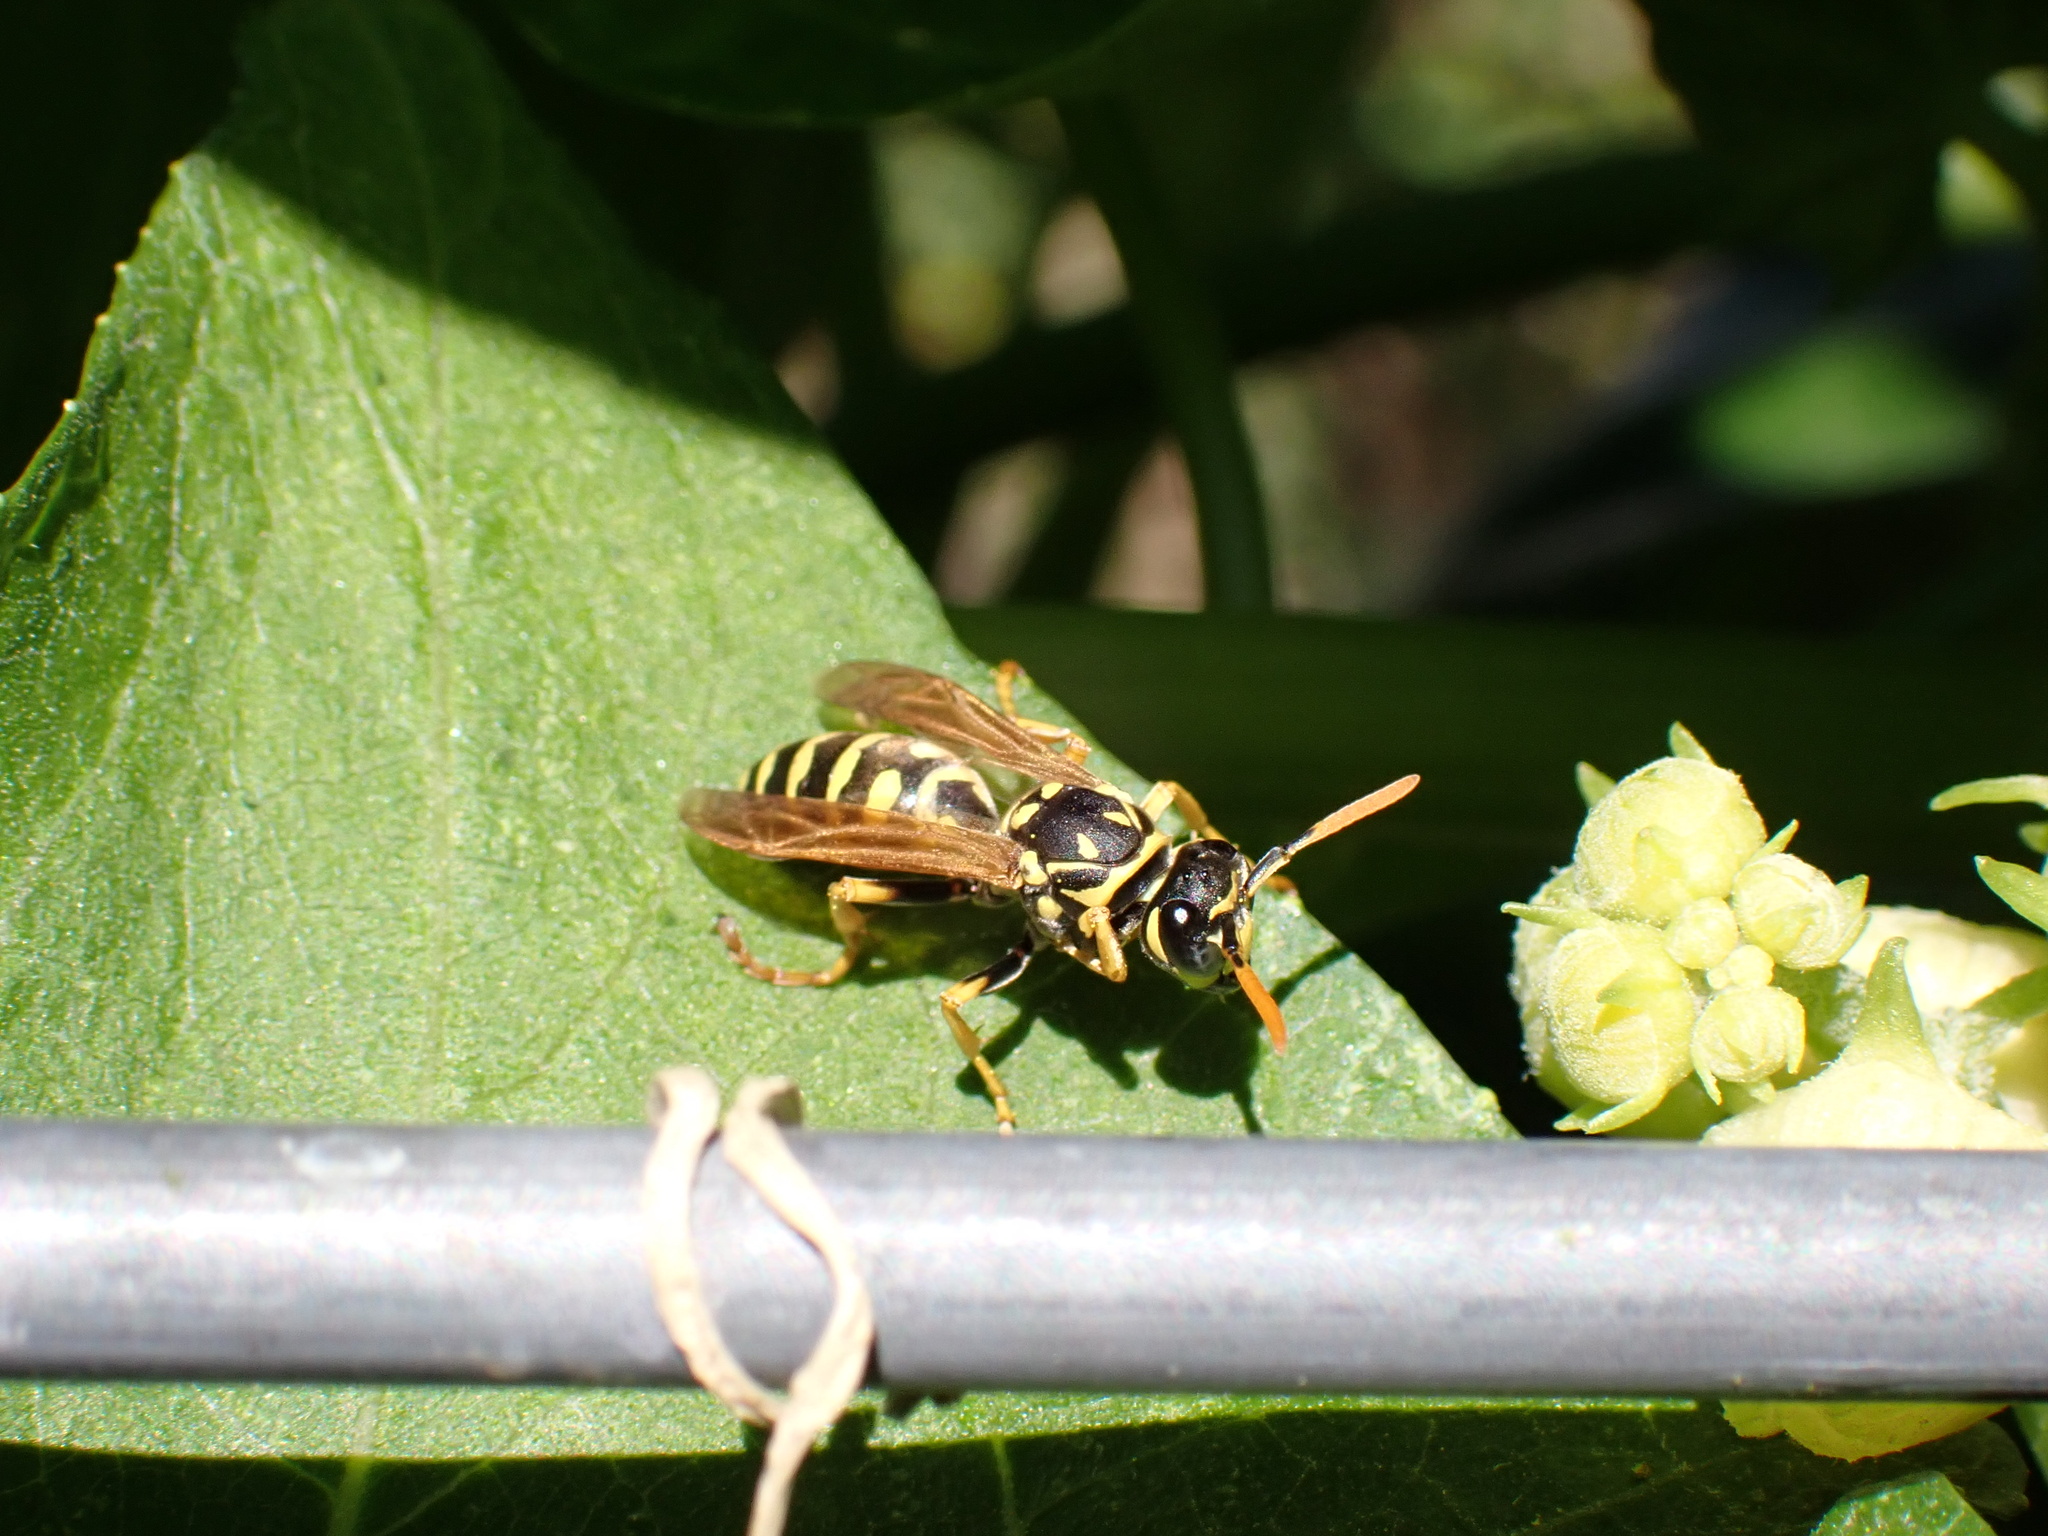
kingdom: Animalia
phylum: Arthropoda
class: Insecta
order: Hymenoptera
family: Eumenidae
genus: Polistes
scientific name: Polistes dominula
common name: Paper wasp
